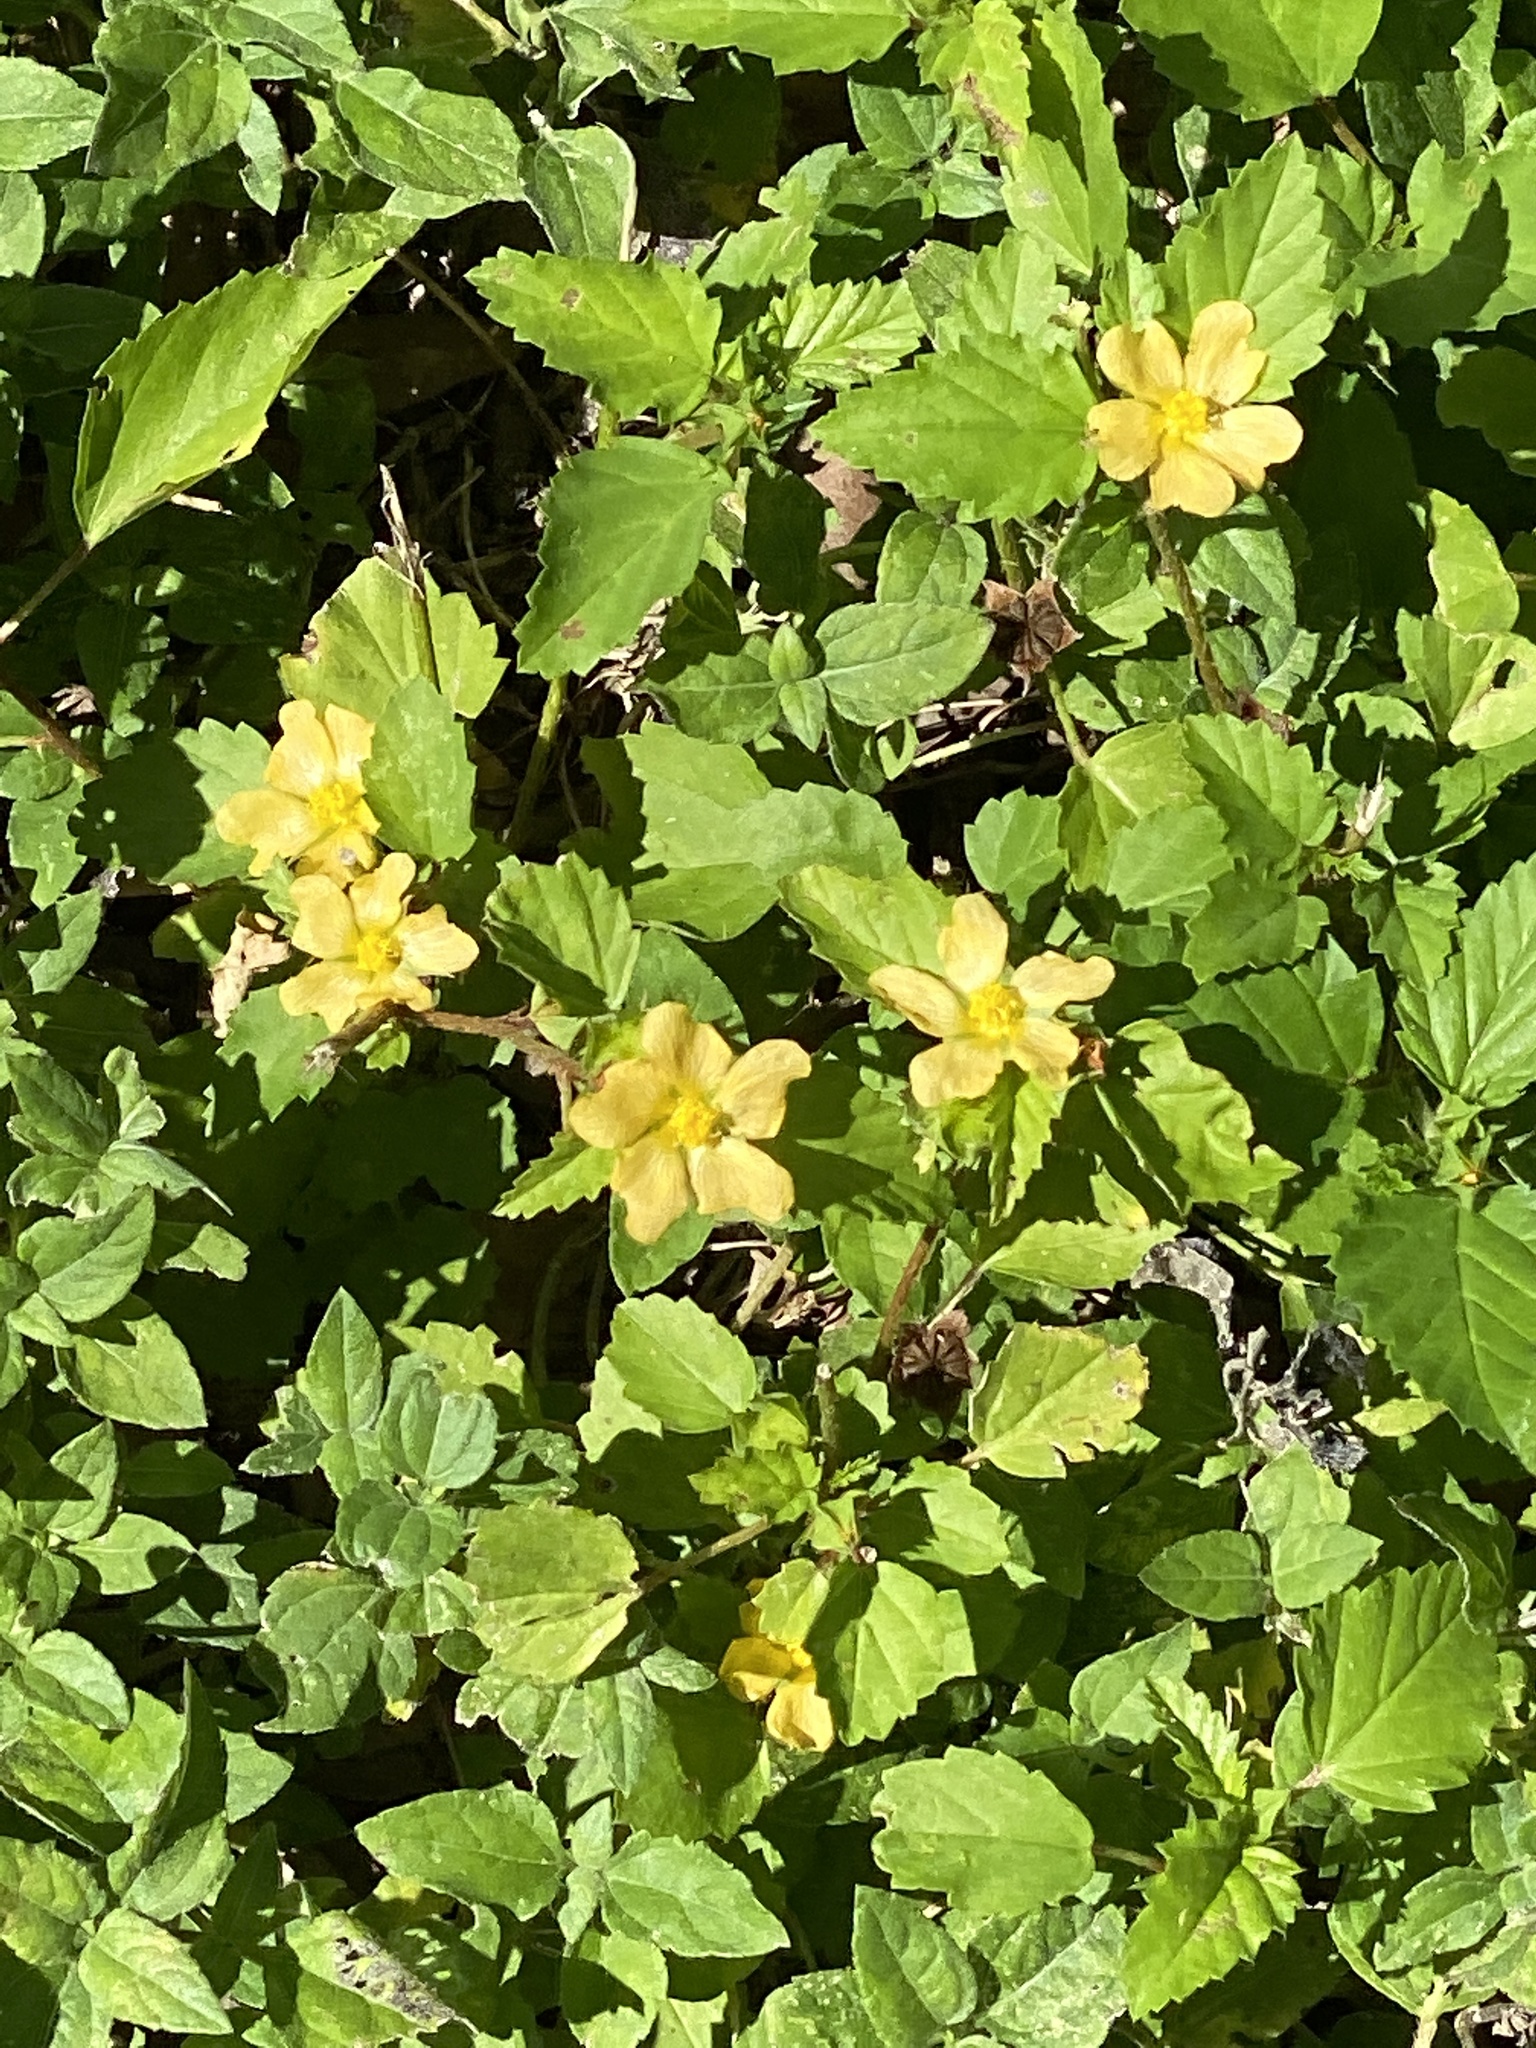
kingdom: Plantae
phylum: Tracheophyta
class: Magnoliopsida
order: Malvales
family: Malvaceae
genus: Malvastrum
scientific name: Malvastrum coromandelianum
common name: Threelobe false mallow
